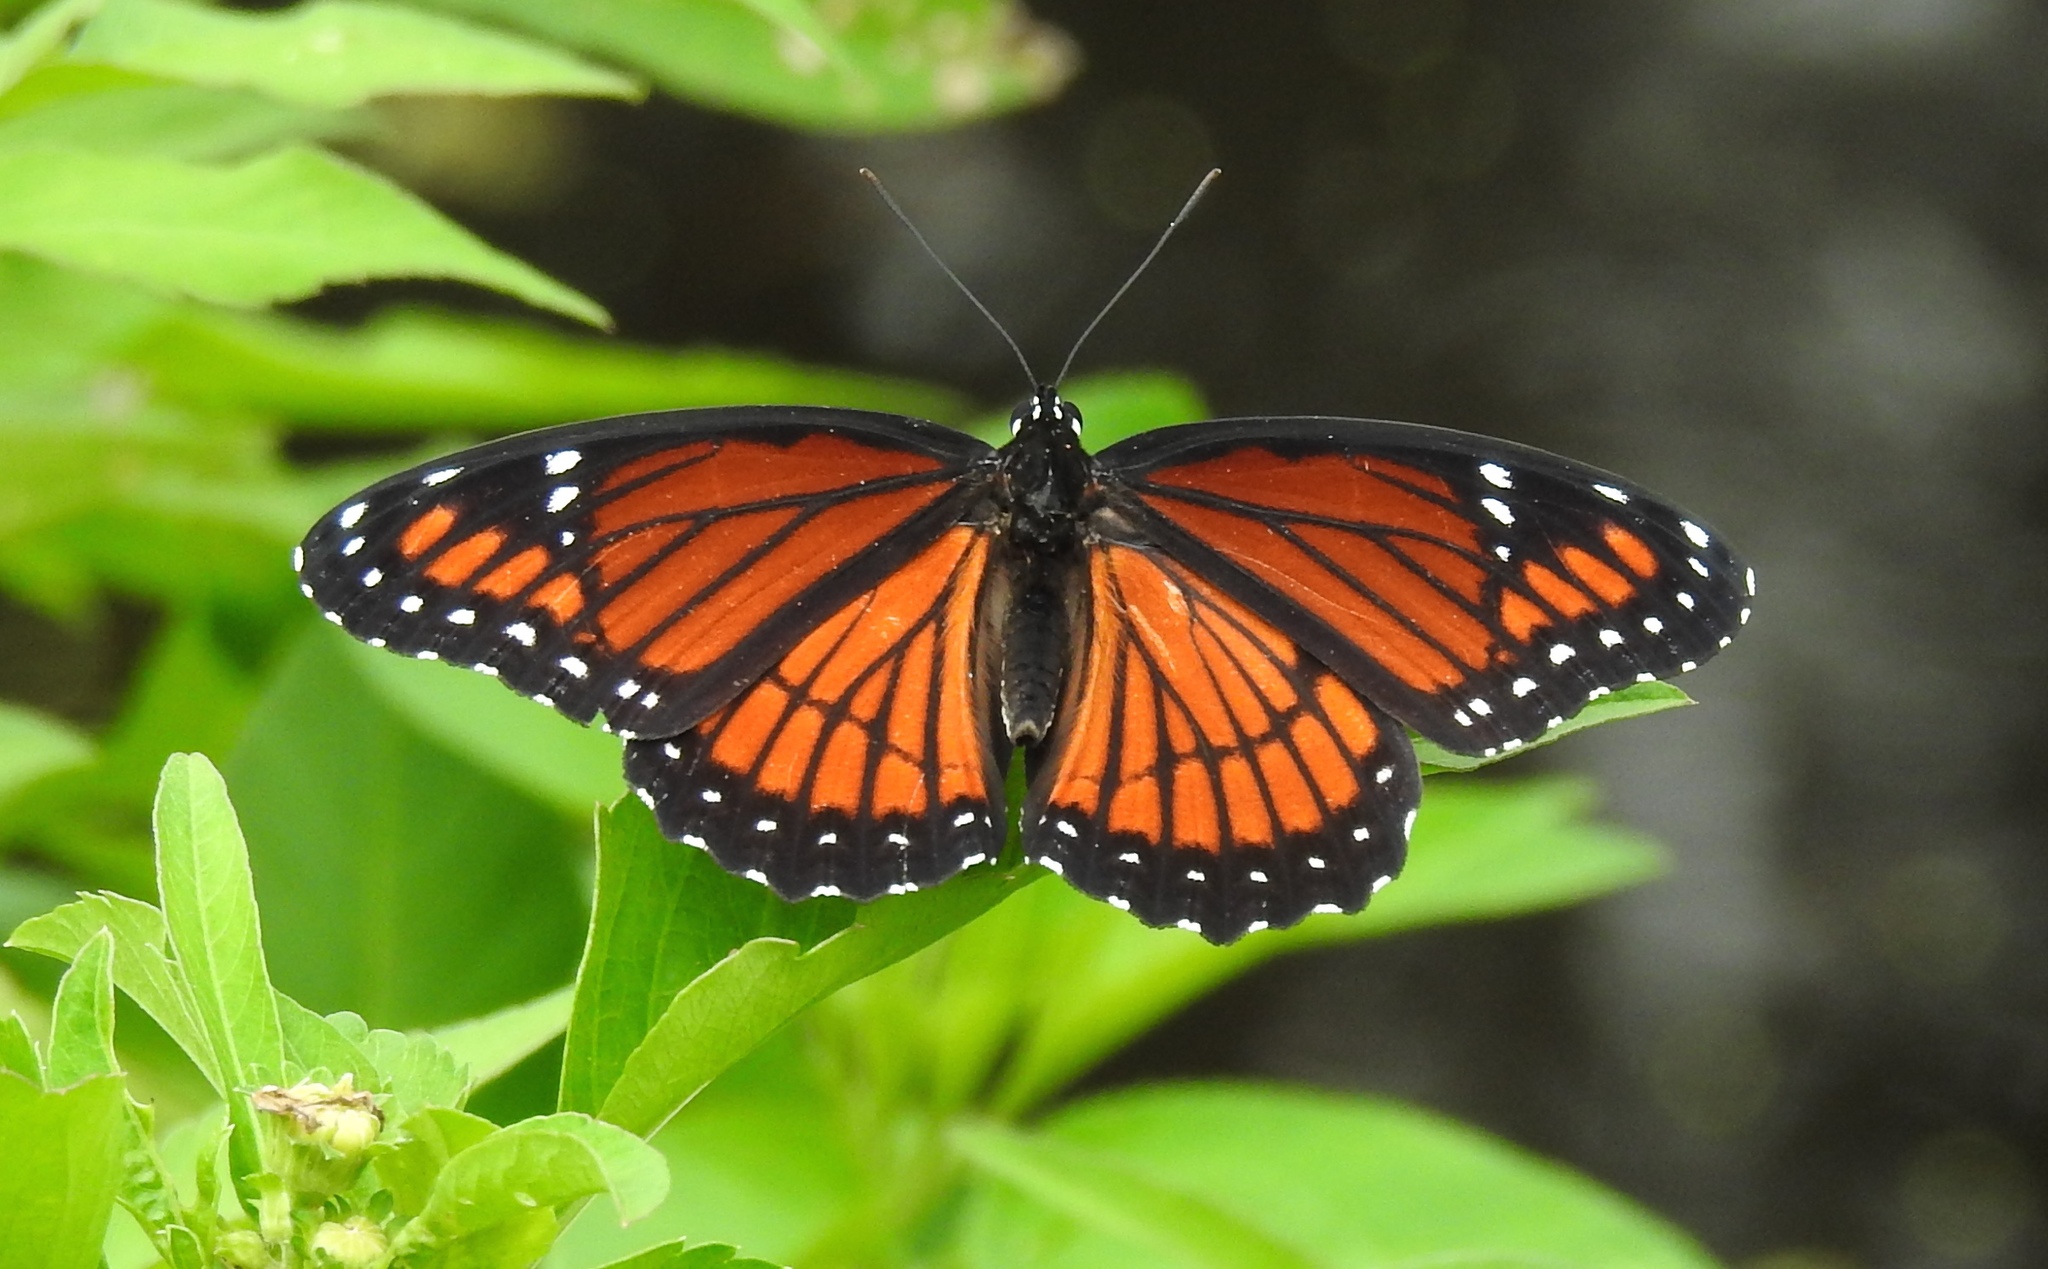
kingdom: Animalia
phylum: Arthropoda
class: Insecta
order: Lepidoptera
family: Nymphalidae
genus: Limenitis
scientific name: Limenitis archippus
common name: Viceroy
